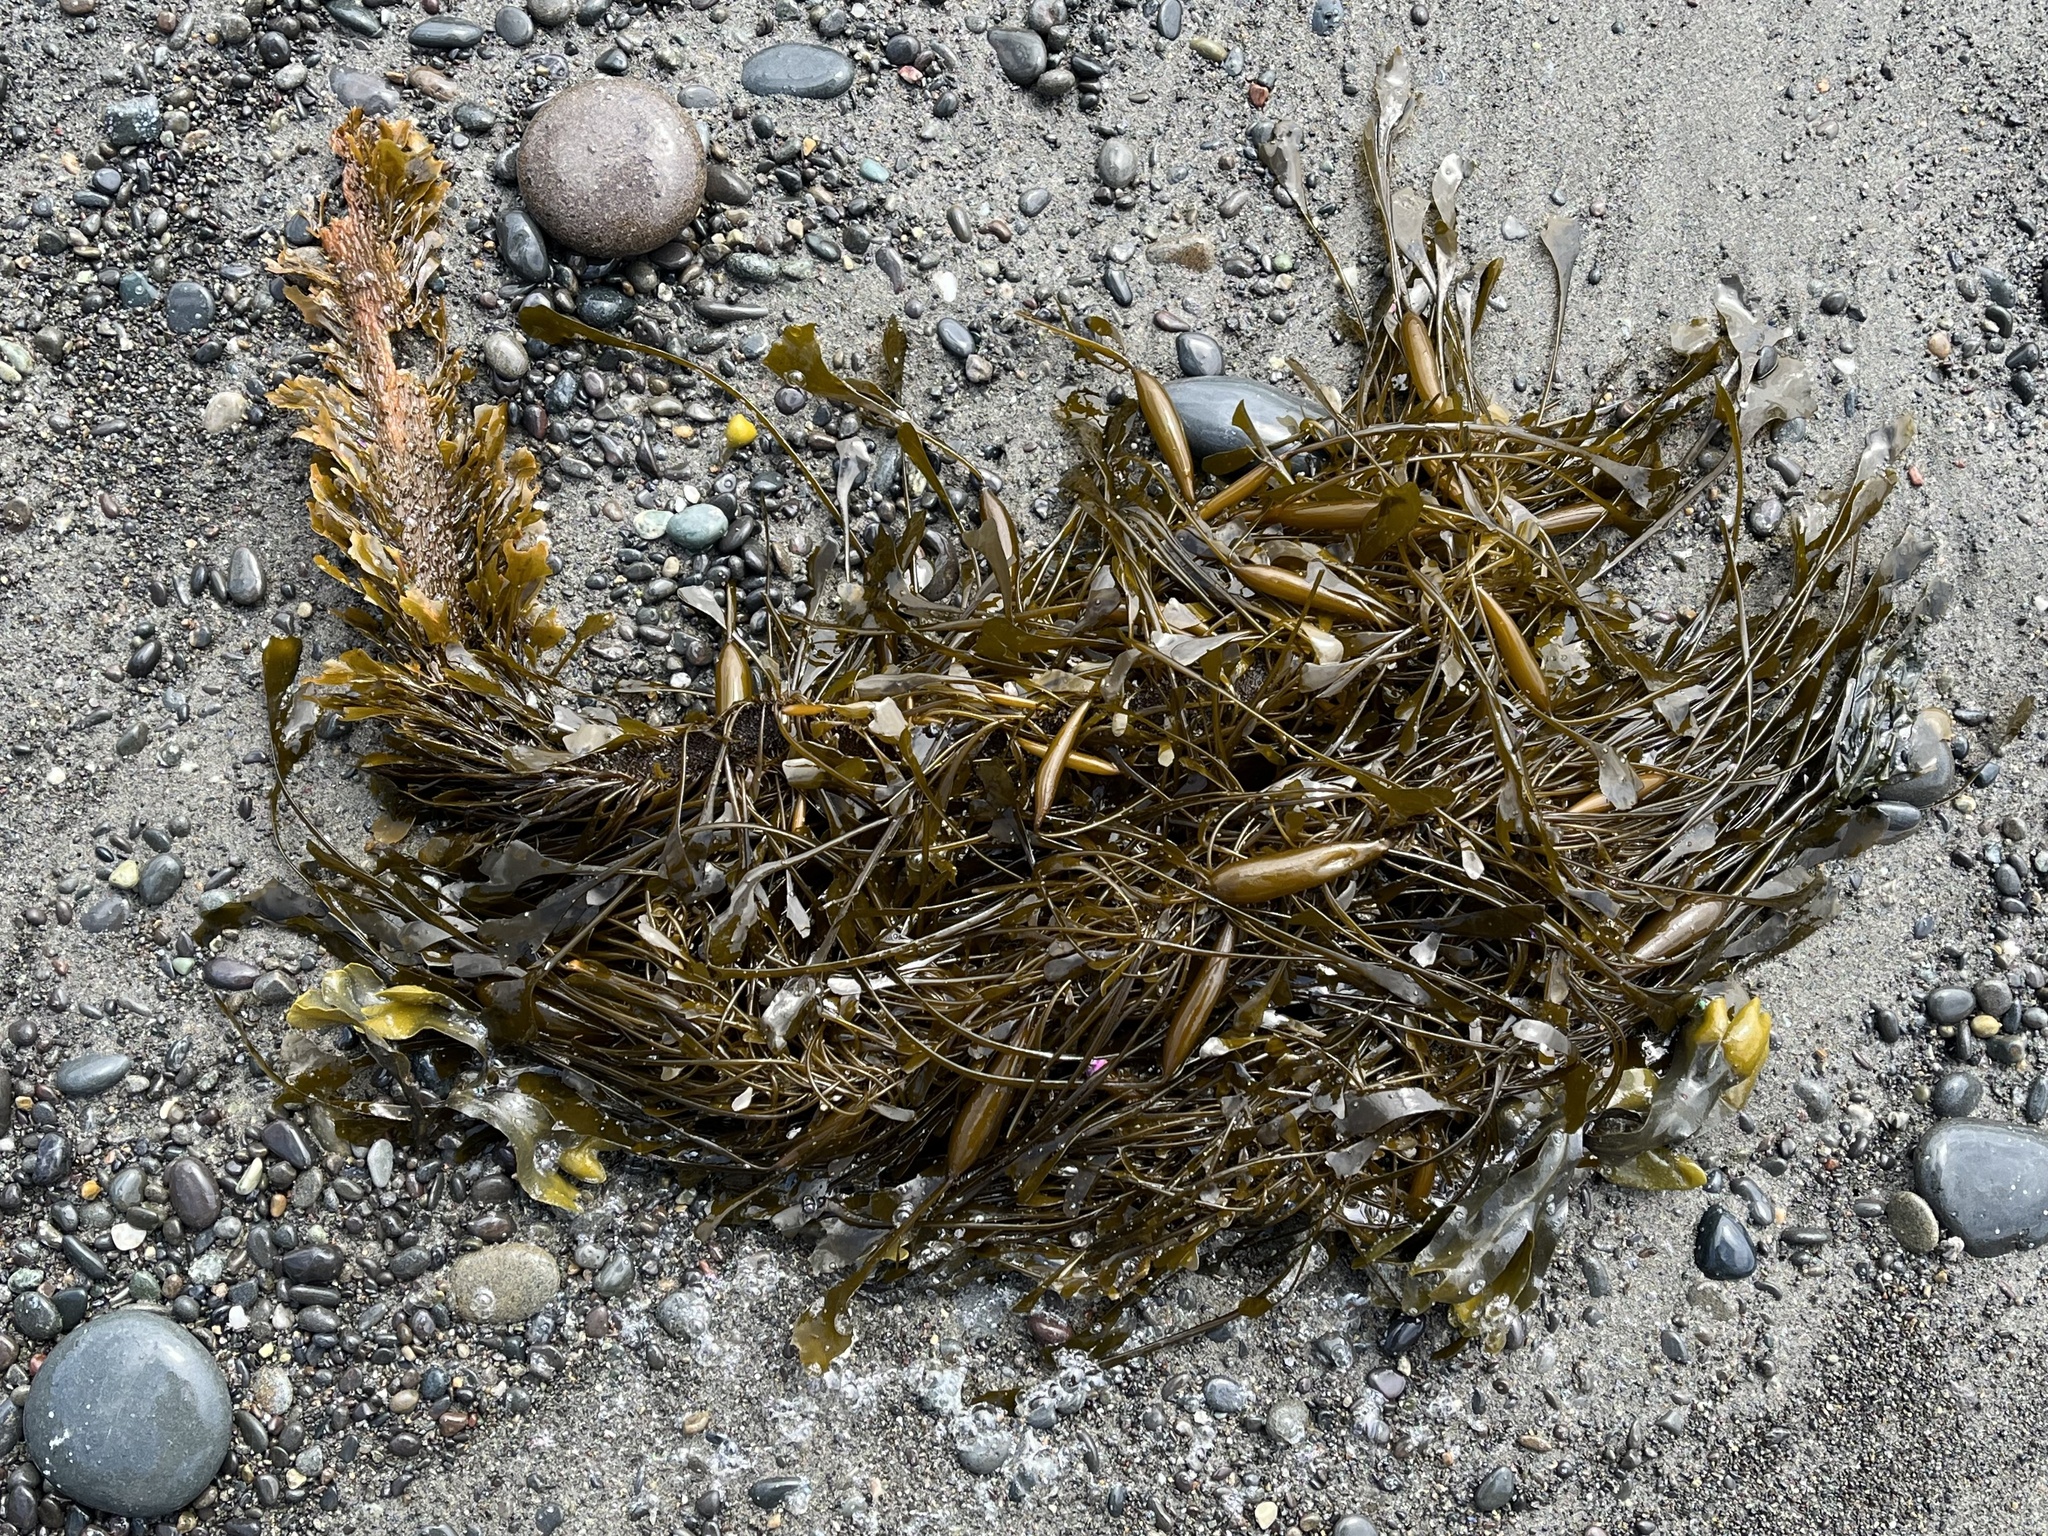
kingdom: Chromista
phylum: Ochrophyta
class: Phaeophyceae
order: Laminariales
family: Lessoniaceae
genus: Egregia
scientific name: Egregia menziesii
